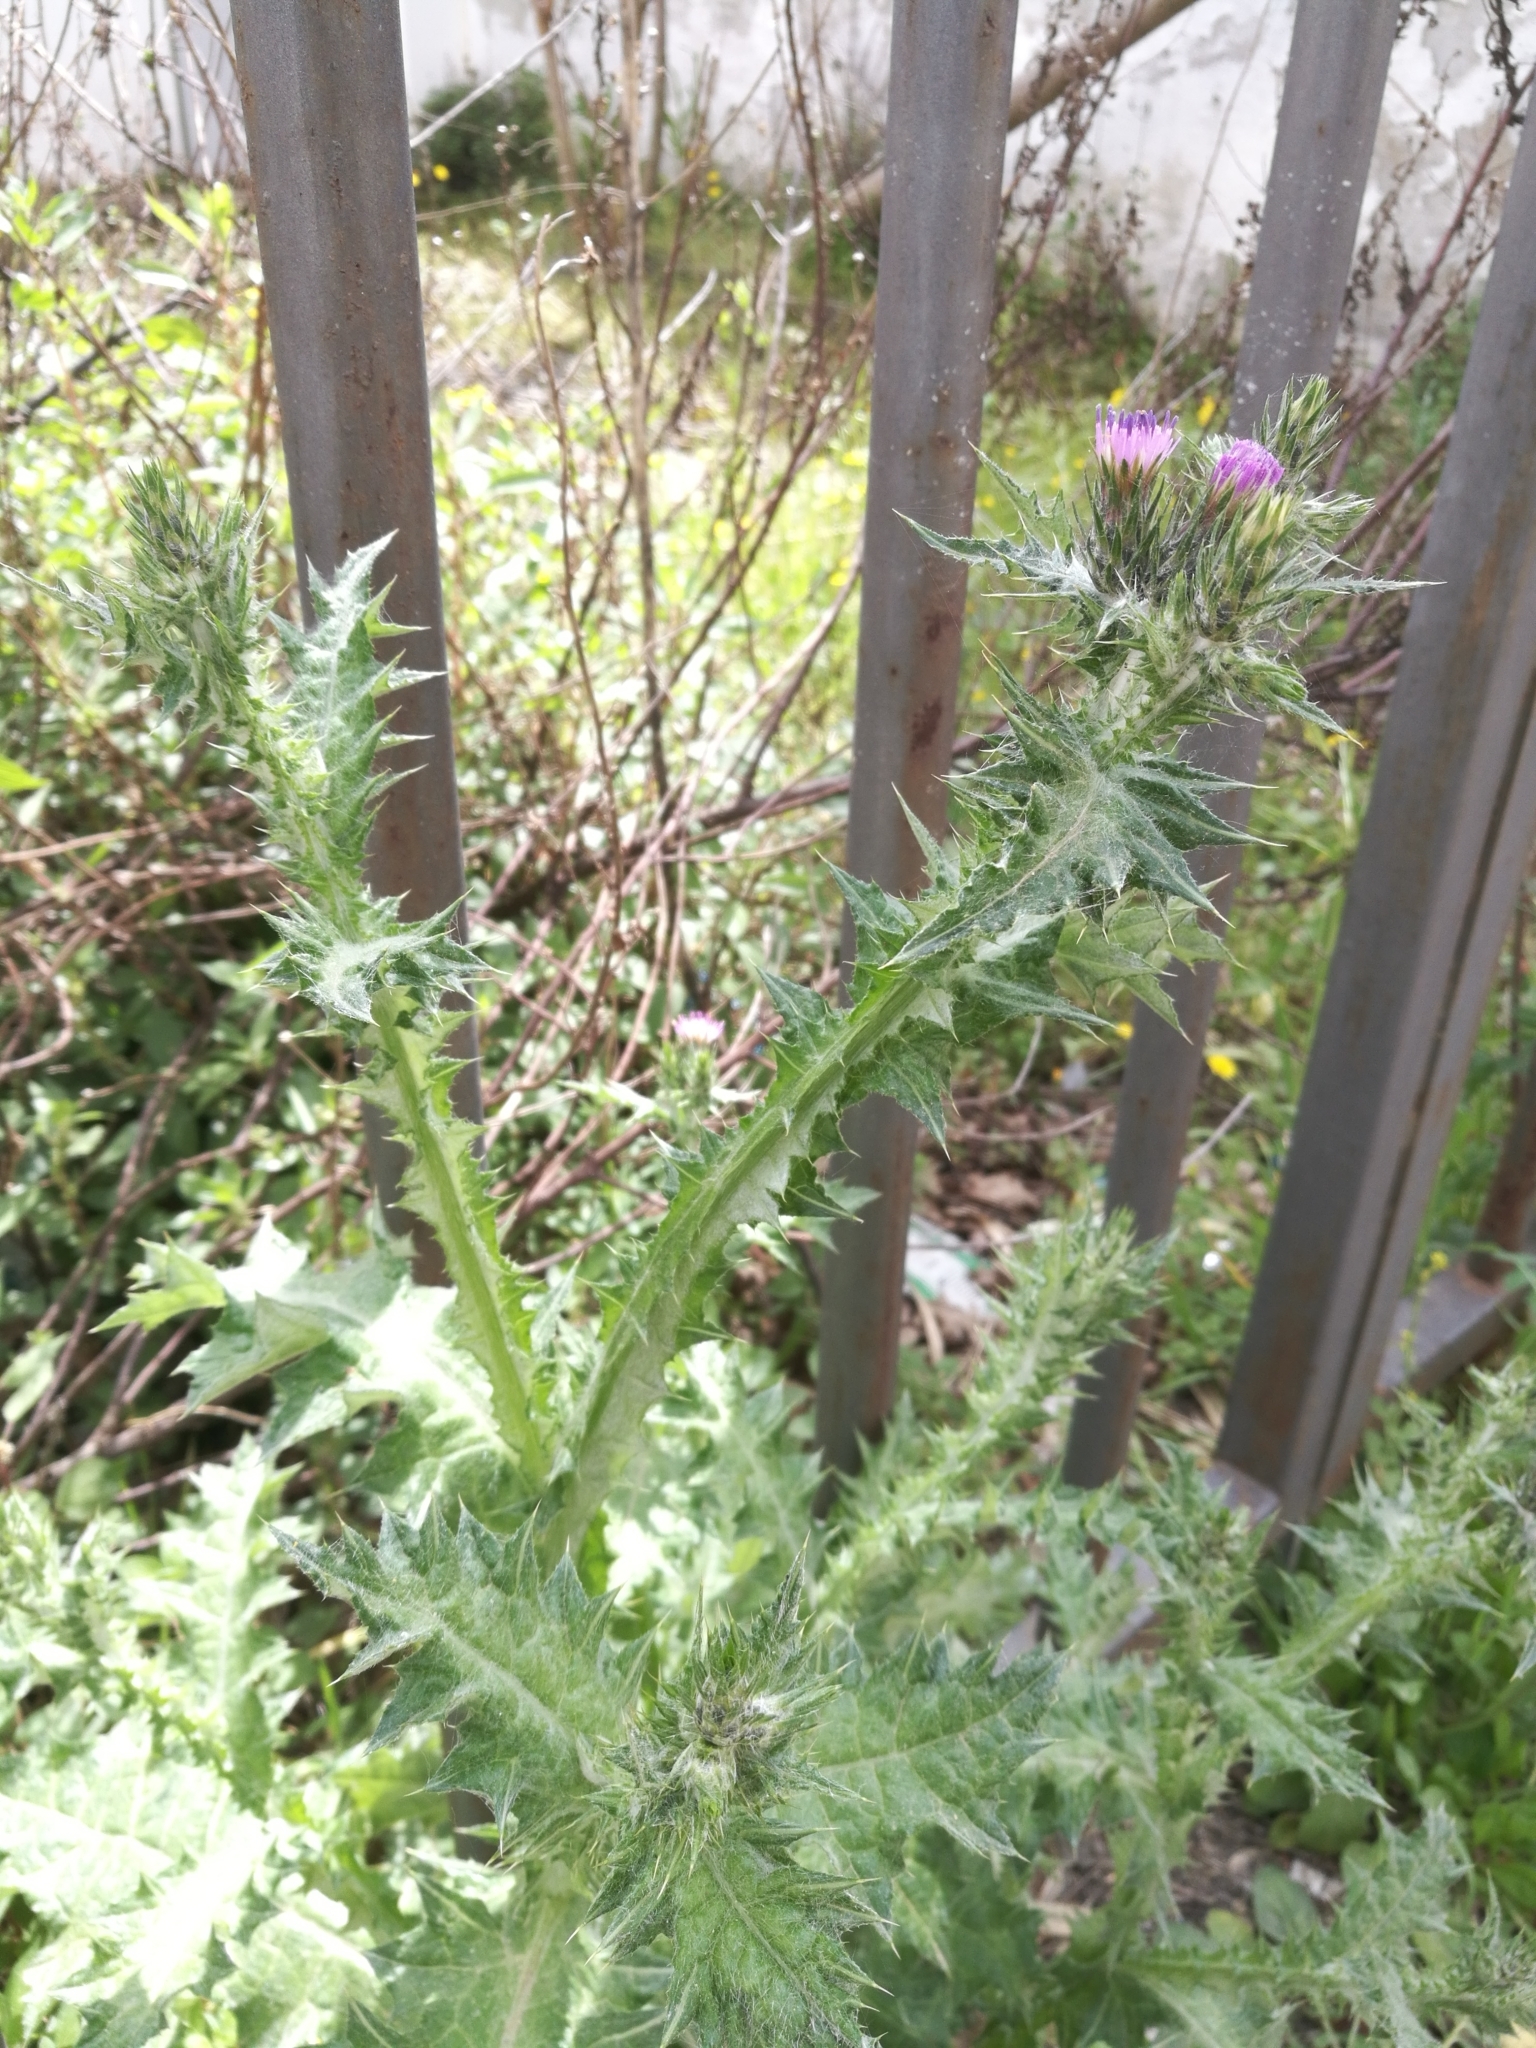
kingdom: Plantae
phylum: Tracheophyta
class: Magnoliopsida
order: Asterales
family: Asteraceae
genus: Carduus
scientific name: Carduus pycnocephalus
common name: Plymouth thistle
